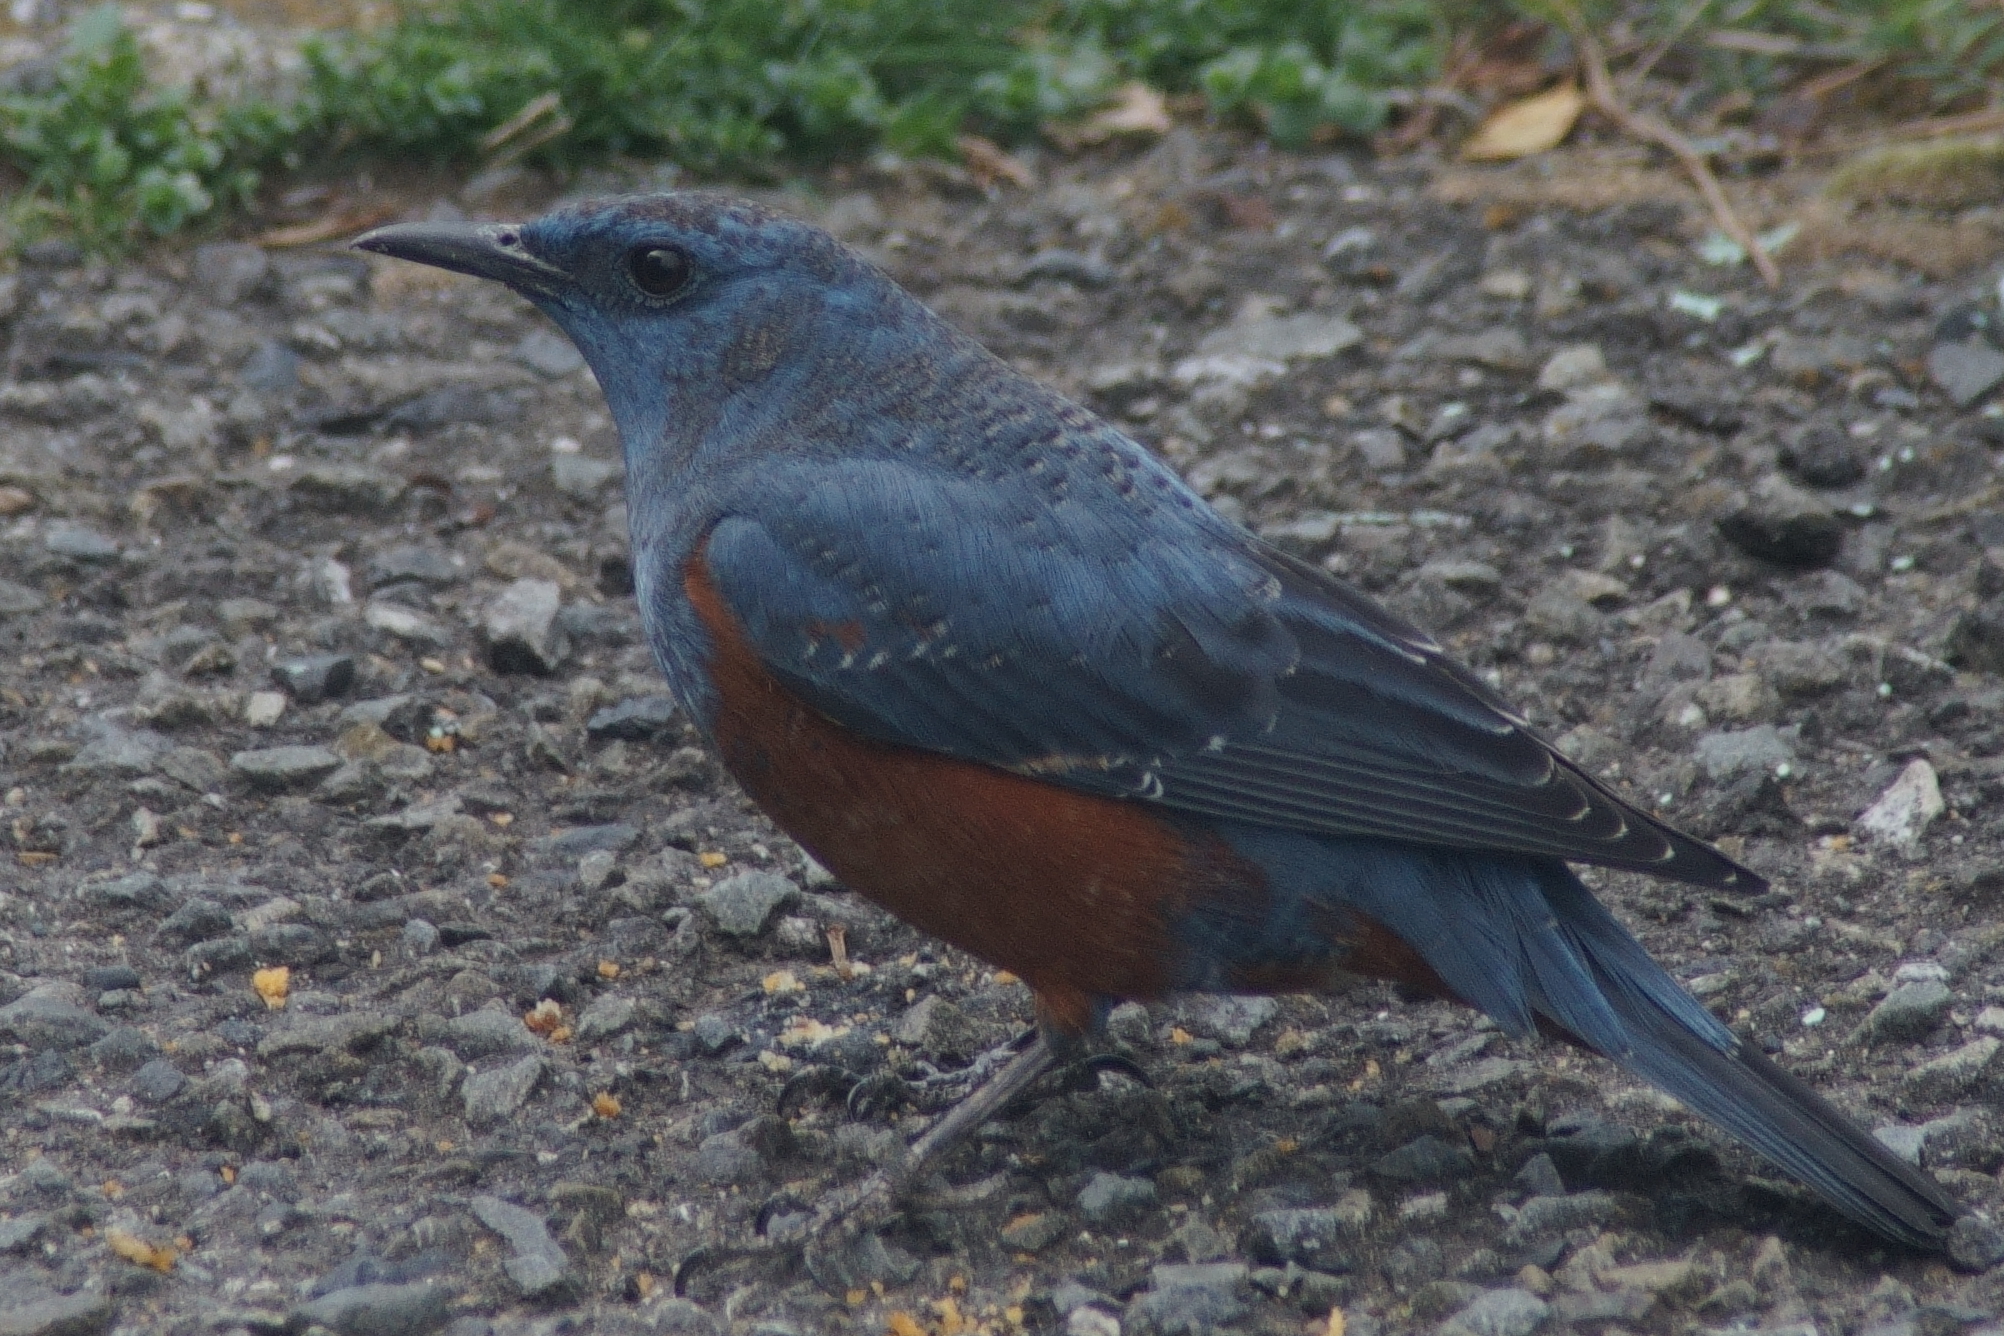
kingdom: Animalia
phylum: Chordata
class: Aves
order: Passeriformes
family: Muscicapidae
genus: Monticola
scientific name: Monticola solitarius
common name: Blue rock thrush
